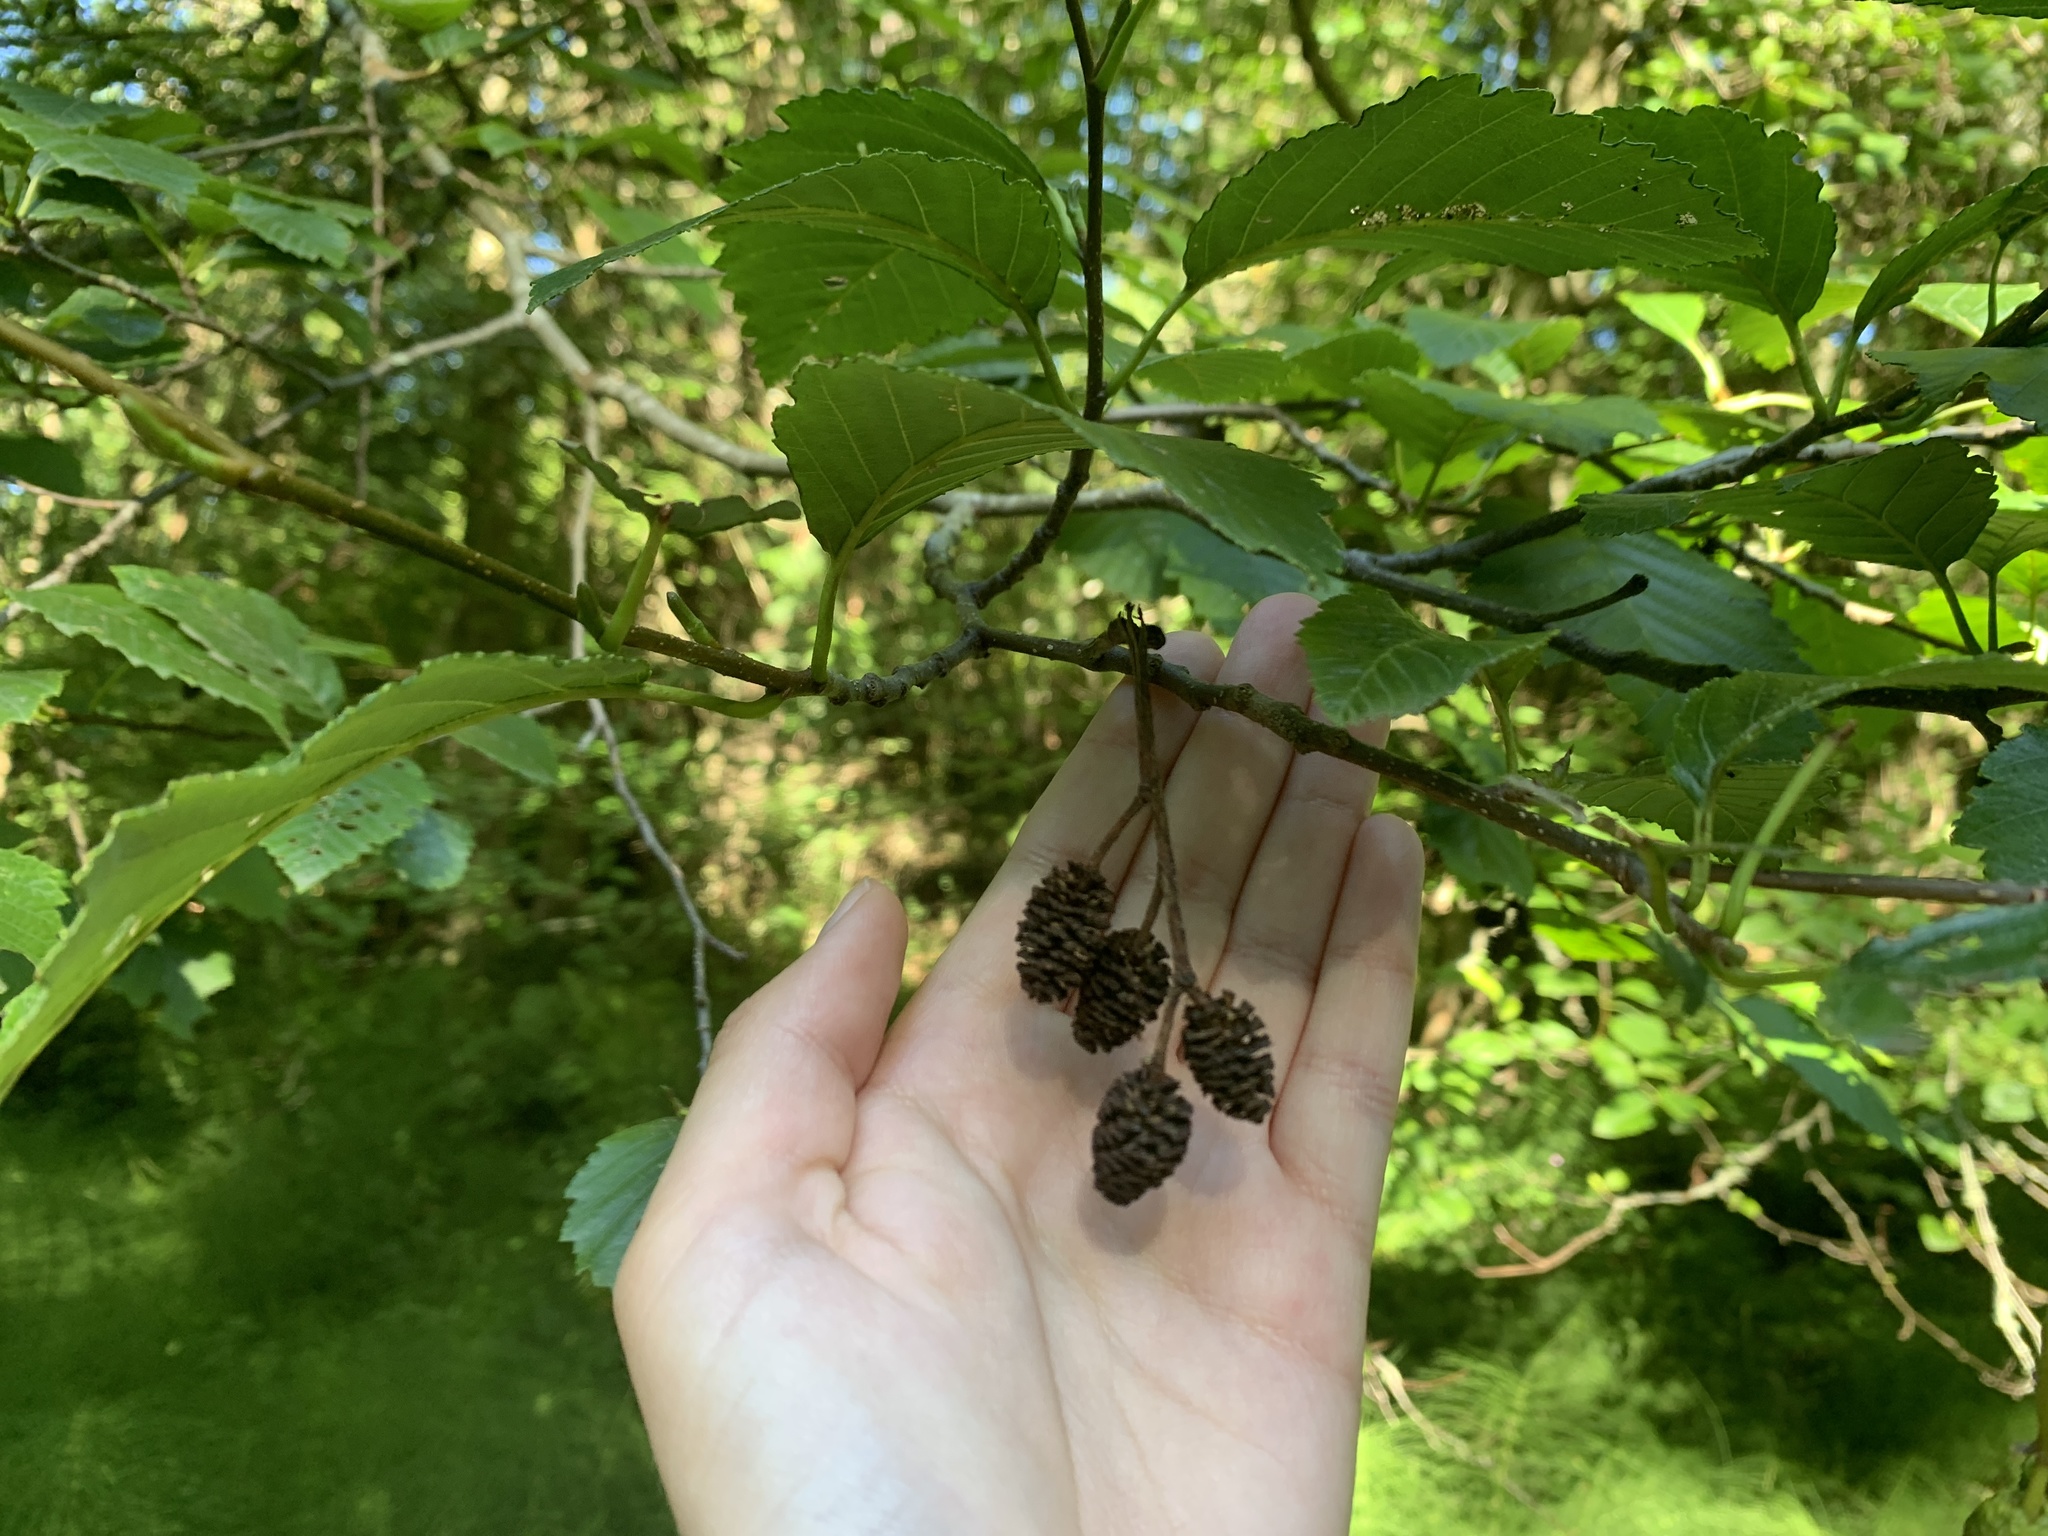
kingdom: Plantae
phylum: Tracheophyta
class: Magnoliopsida
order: Fagales
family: Betulaceae
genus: Alnus
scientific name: Alnus rubra
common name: Red alder
